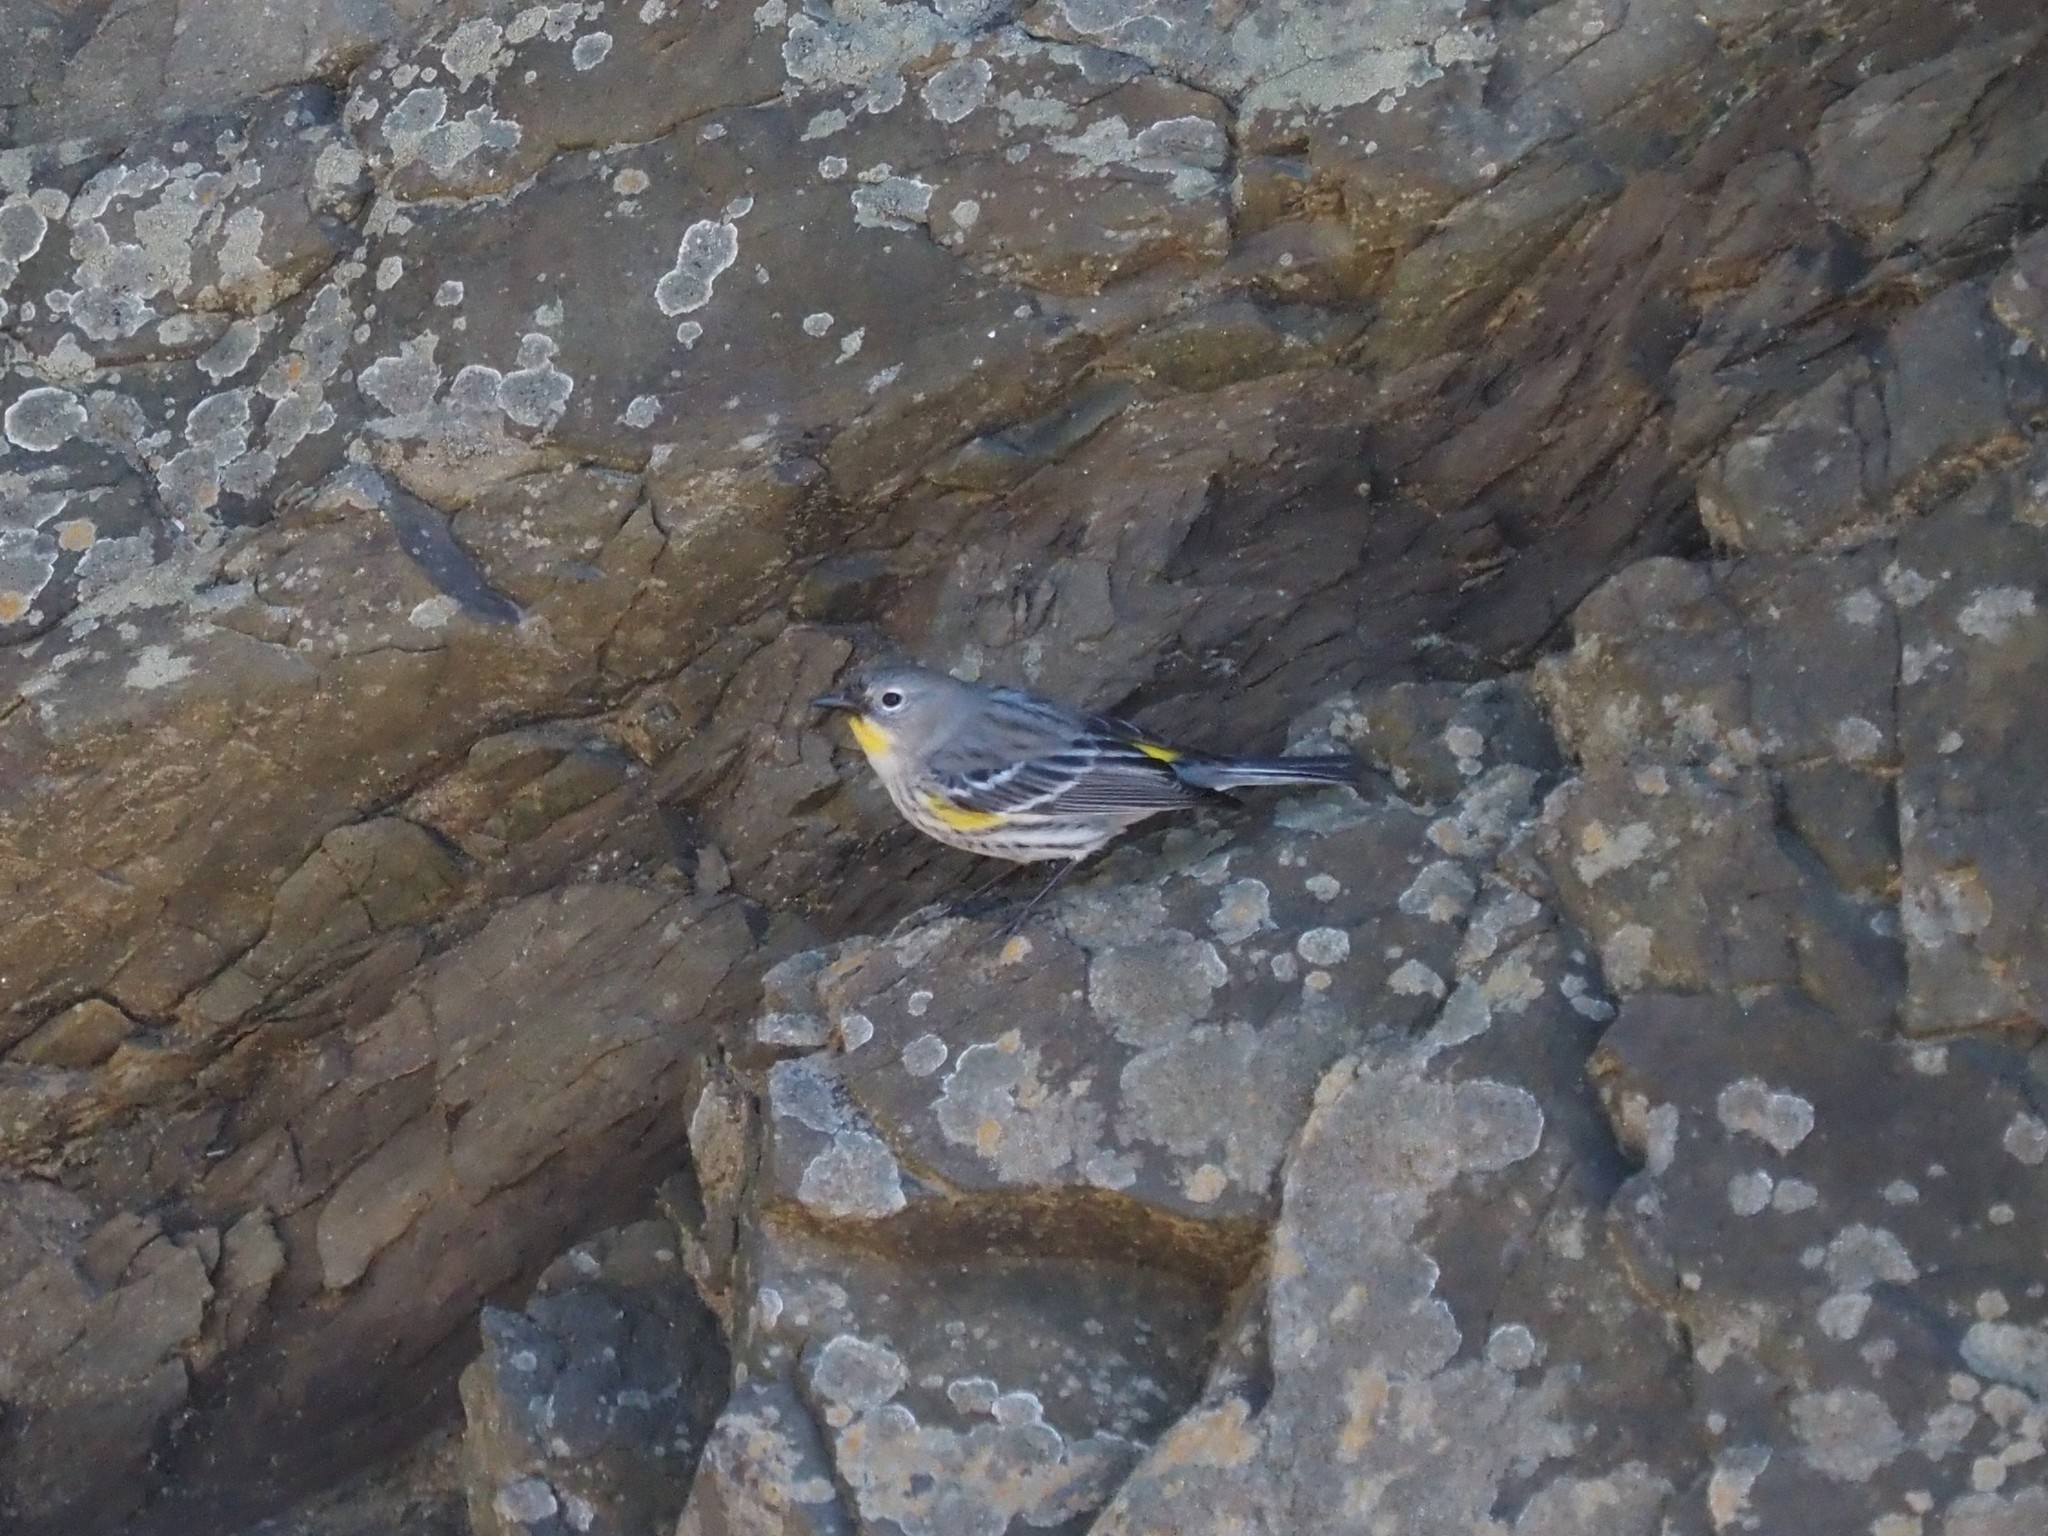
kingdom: Animalia
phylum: Chordata
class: Aves
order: Passeriformes
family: Parulidae
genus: Setophaga
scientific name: Setophaga coronata
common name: Myrtle warbler
